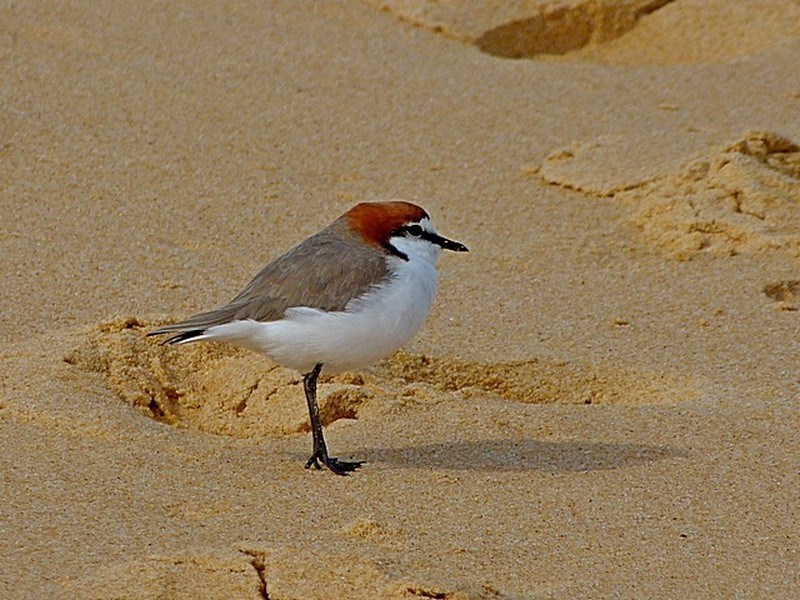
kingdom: Animalia
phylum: Chordata
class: Aves
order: Charadriiformes
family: Charadriidae
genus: Anarhynchus
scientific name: Anarhynchus
